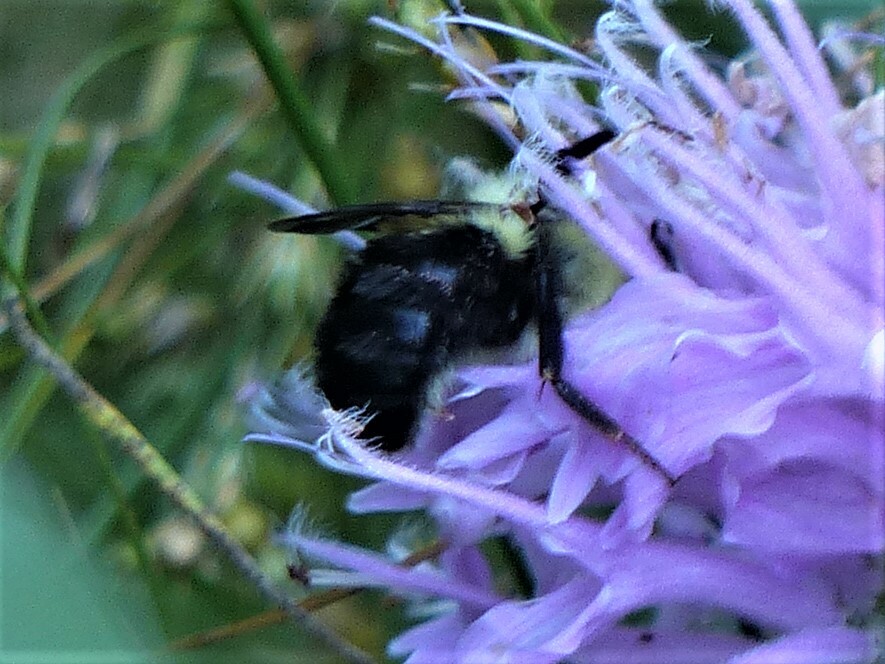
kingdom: Animalia
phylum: Arthropoda
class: Insecta
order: Hymenoptera
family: Apidae
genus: Bombus
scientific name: Bombus bimaculatus
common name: Two-spotted bumble bee
